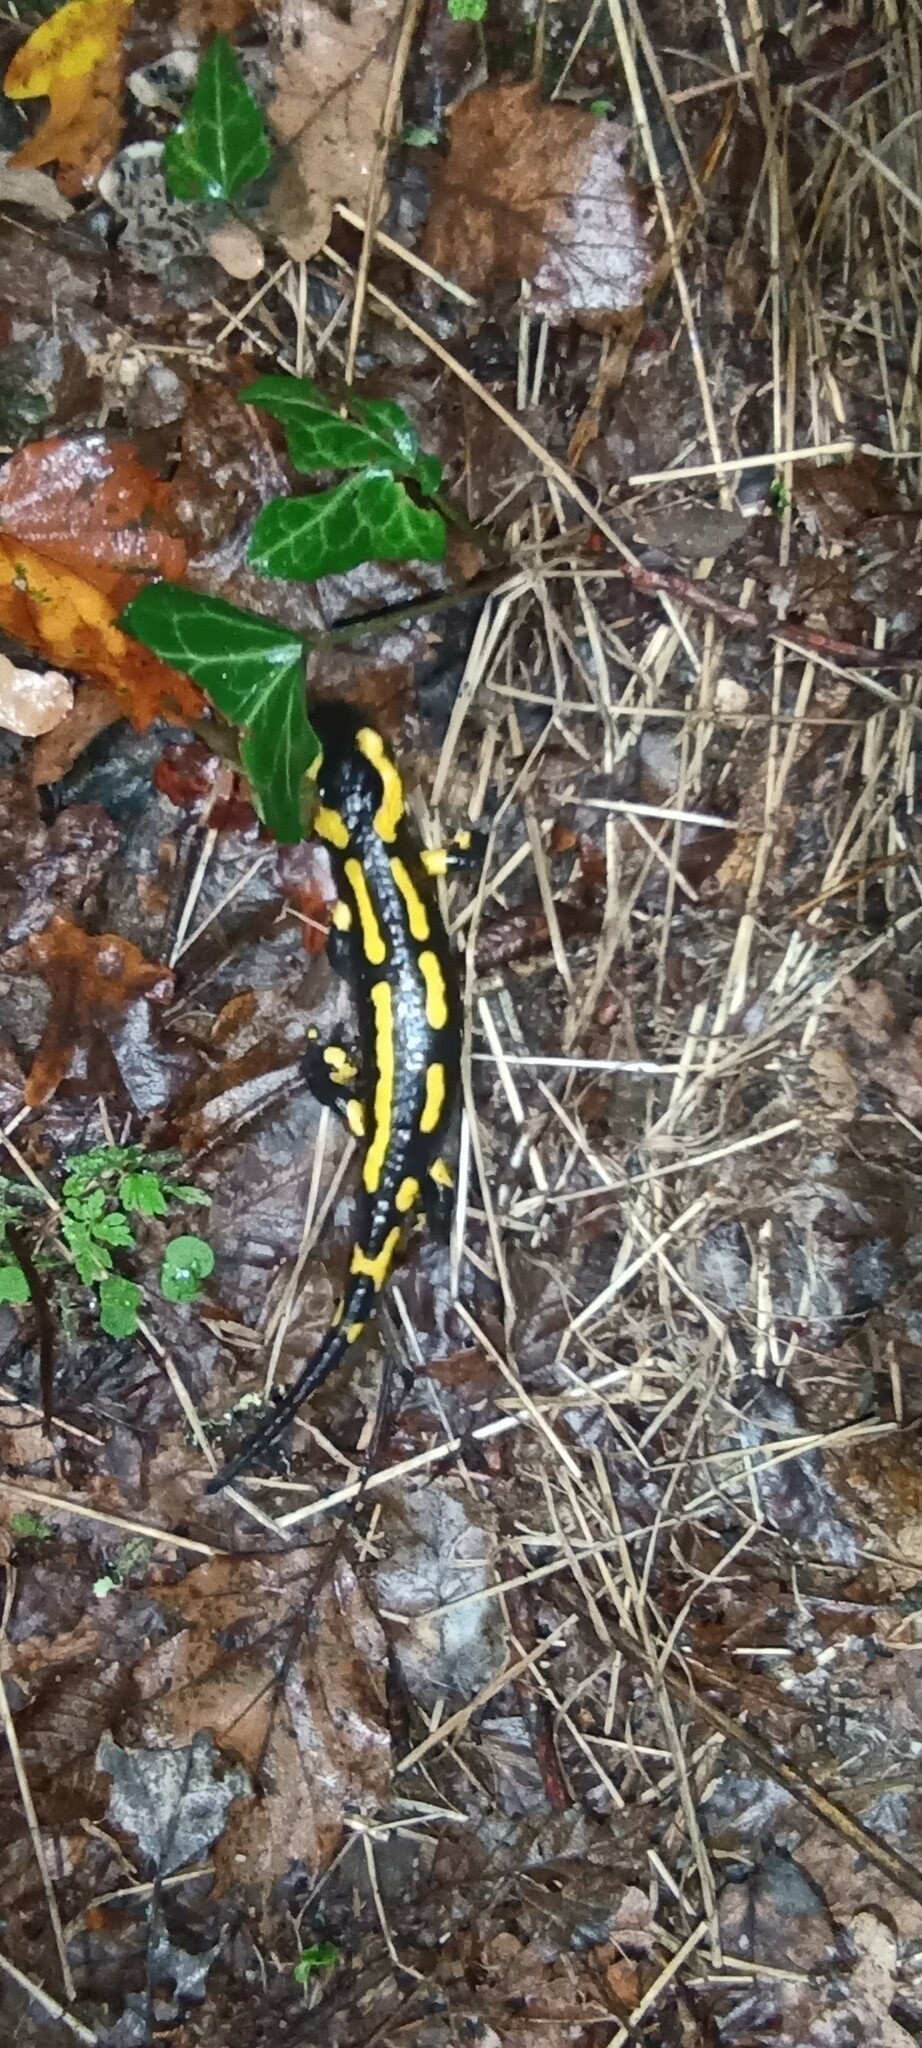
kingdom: Animalia
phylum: Chordata
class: Amphibia
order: Caudata
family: Salamandridae
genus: Salamandra
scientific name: Salamandra salamandra
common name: Fire salamander
